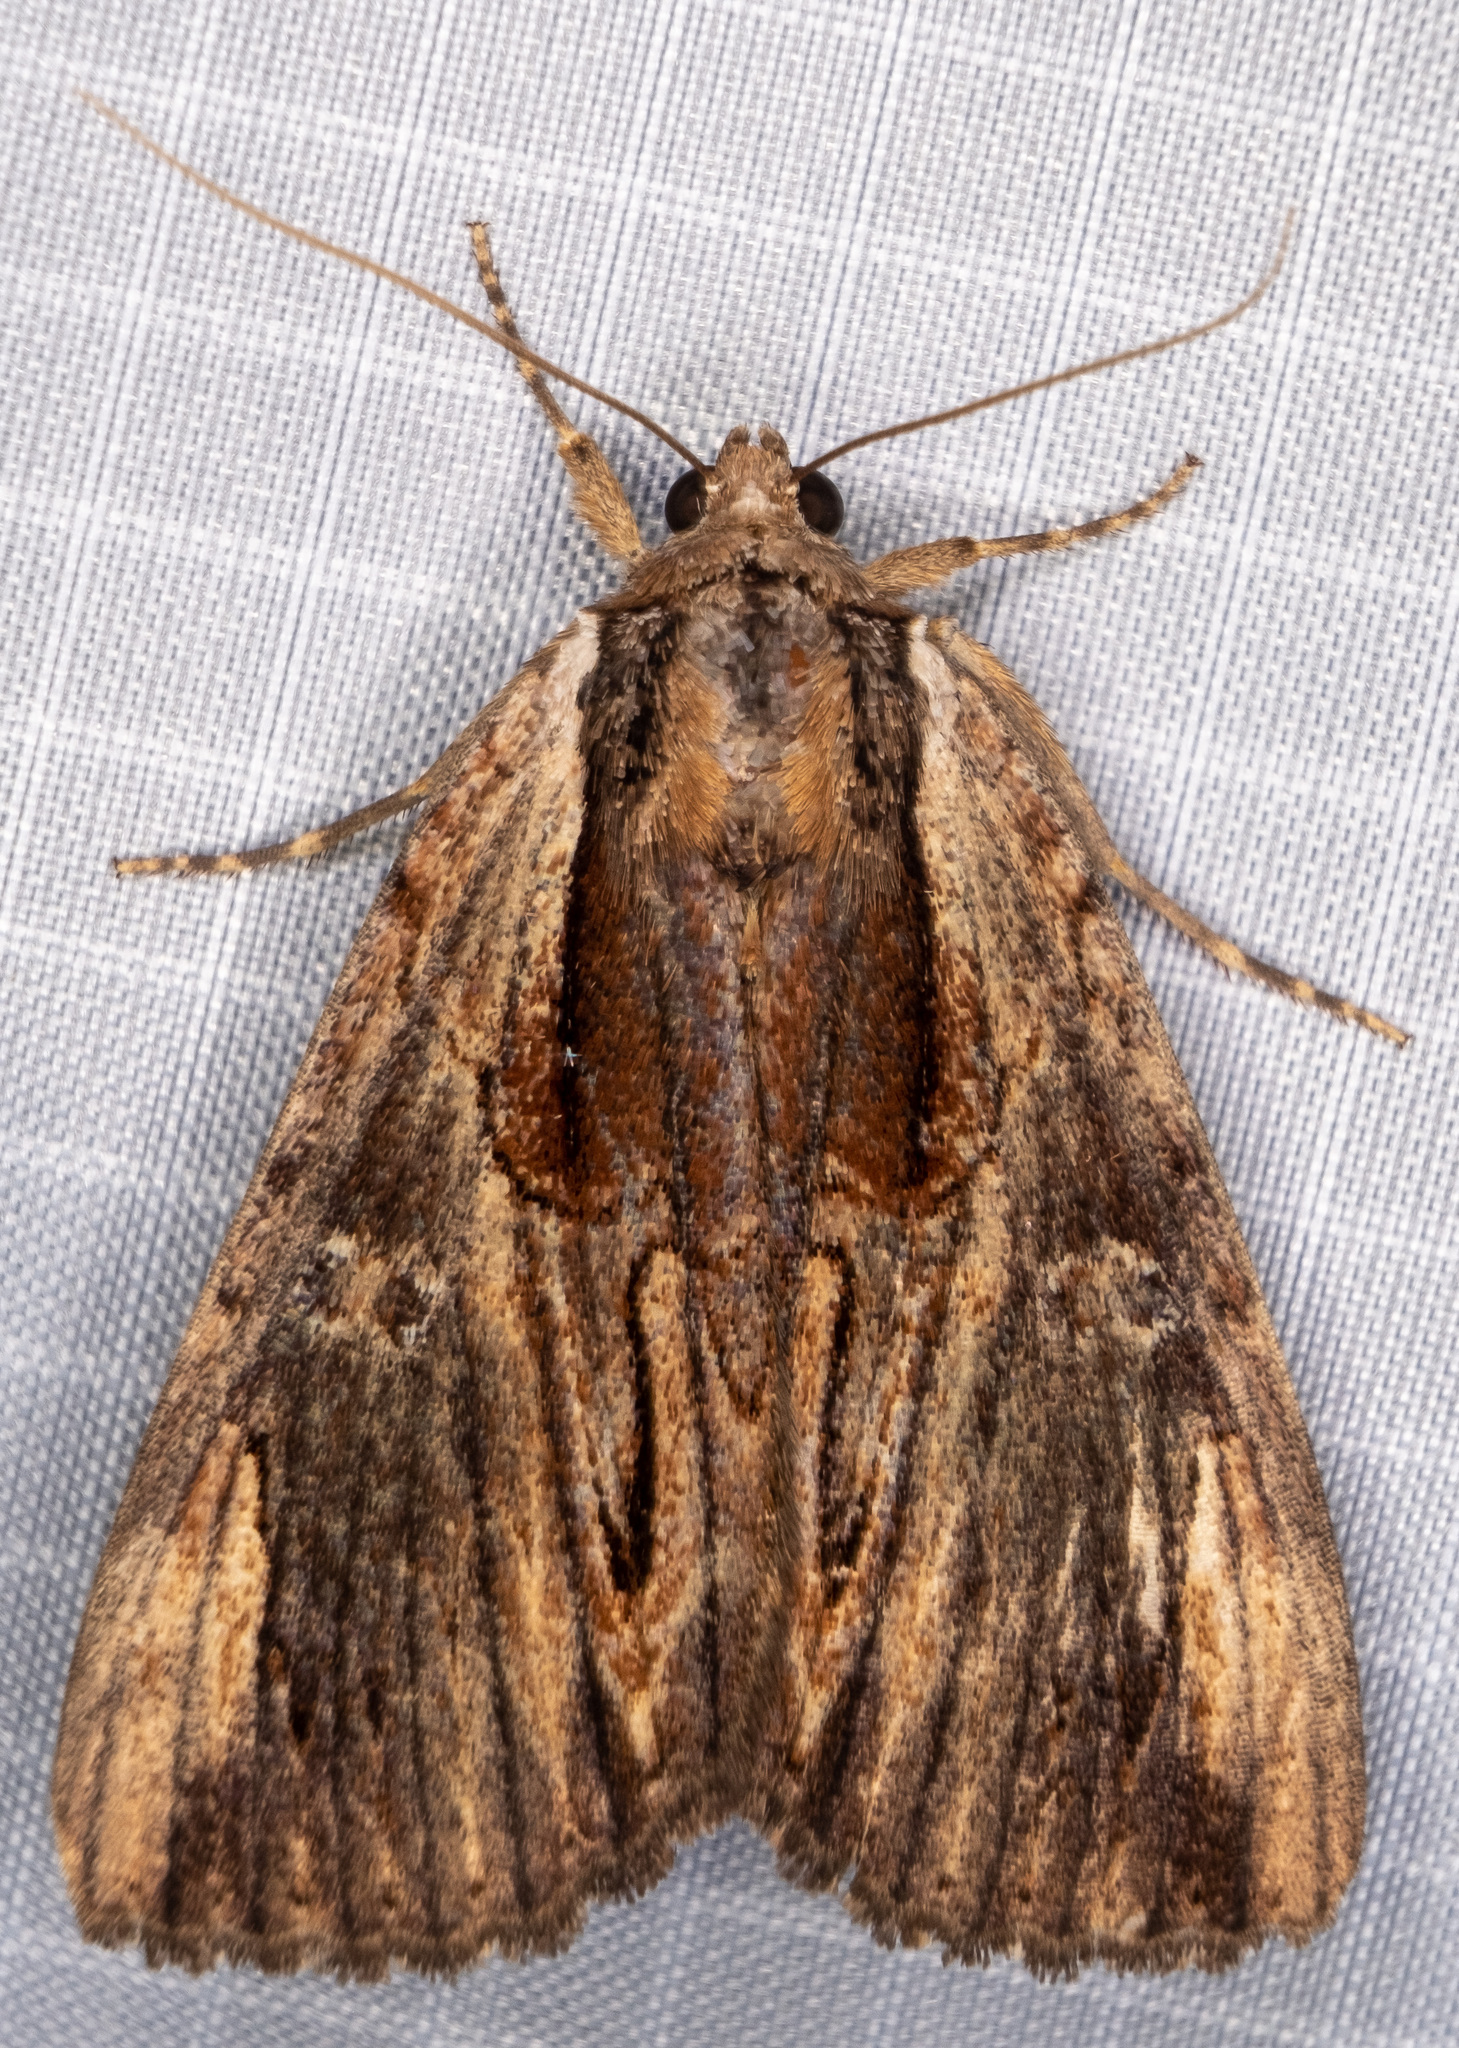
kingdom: Animalia
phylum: Arthropoda
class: Insecta
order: Lepidoptera
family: Erebidae
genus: Catocala
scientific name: Catocala ultronia
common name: Ultronia underwing
